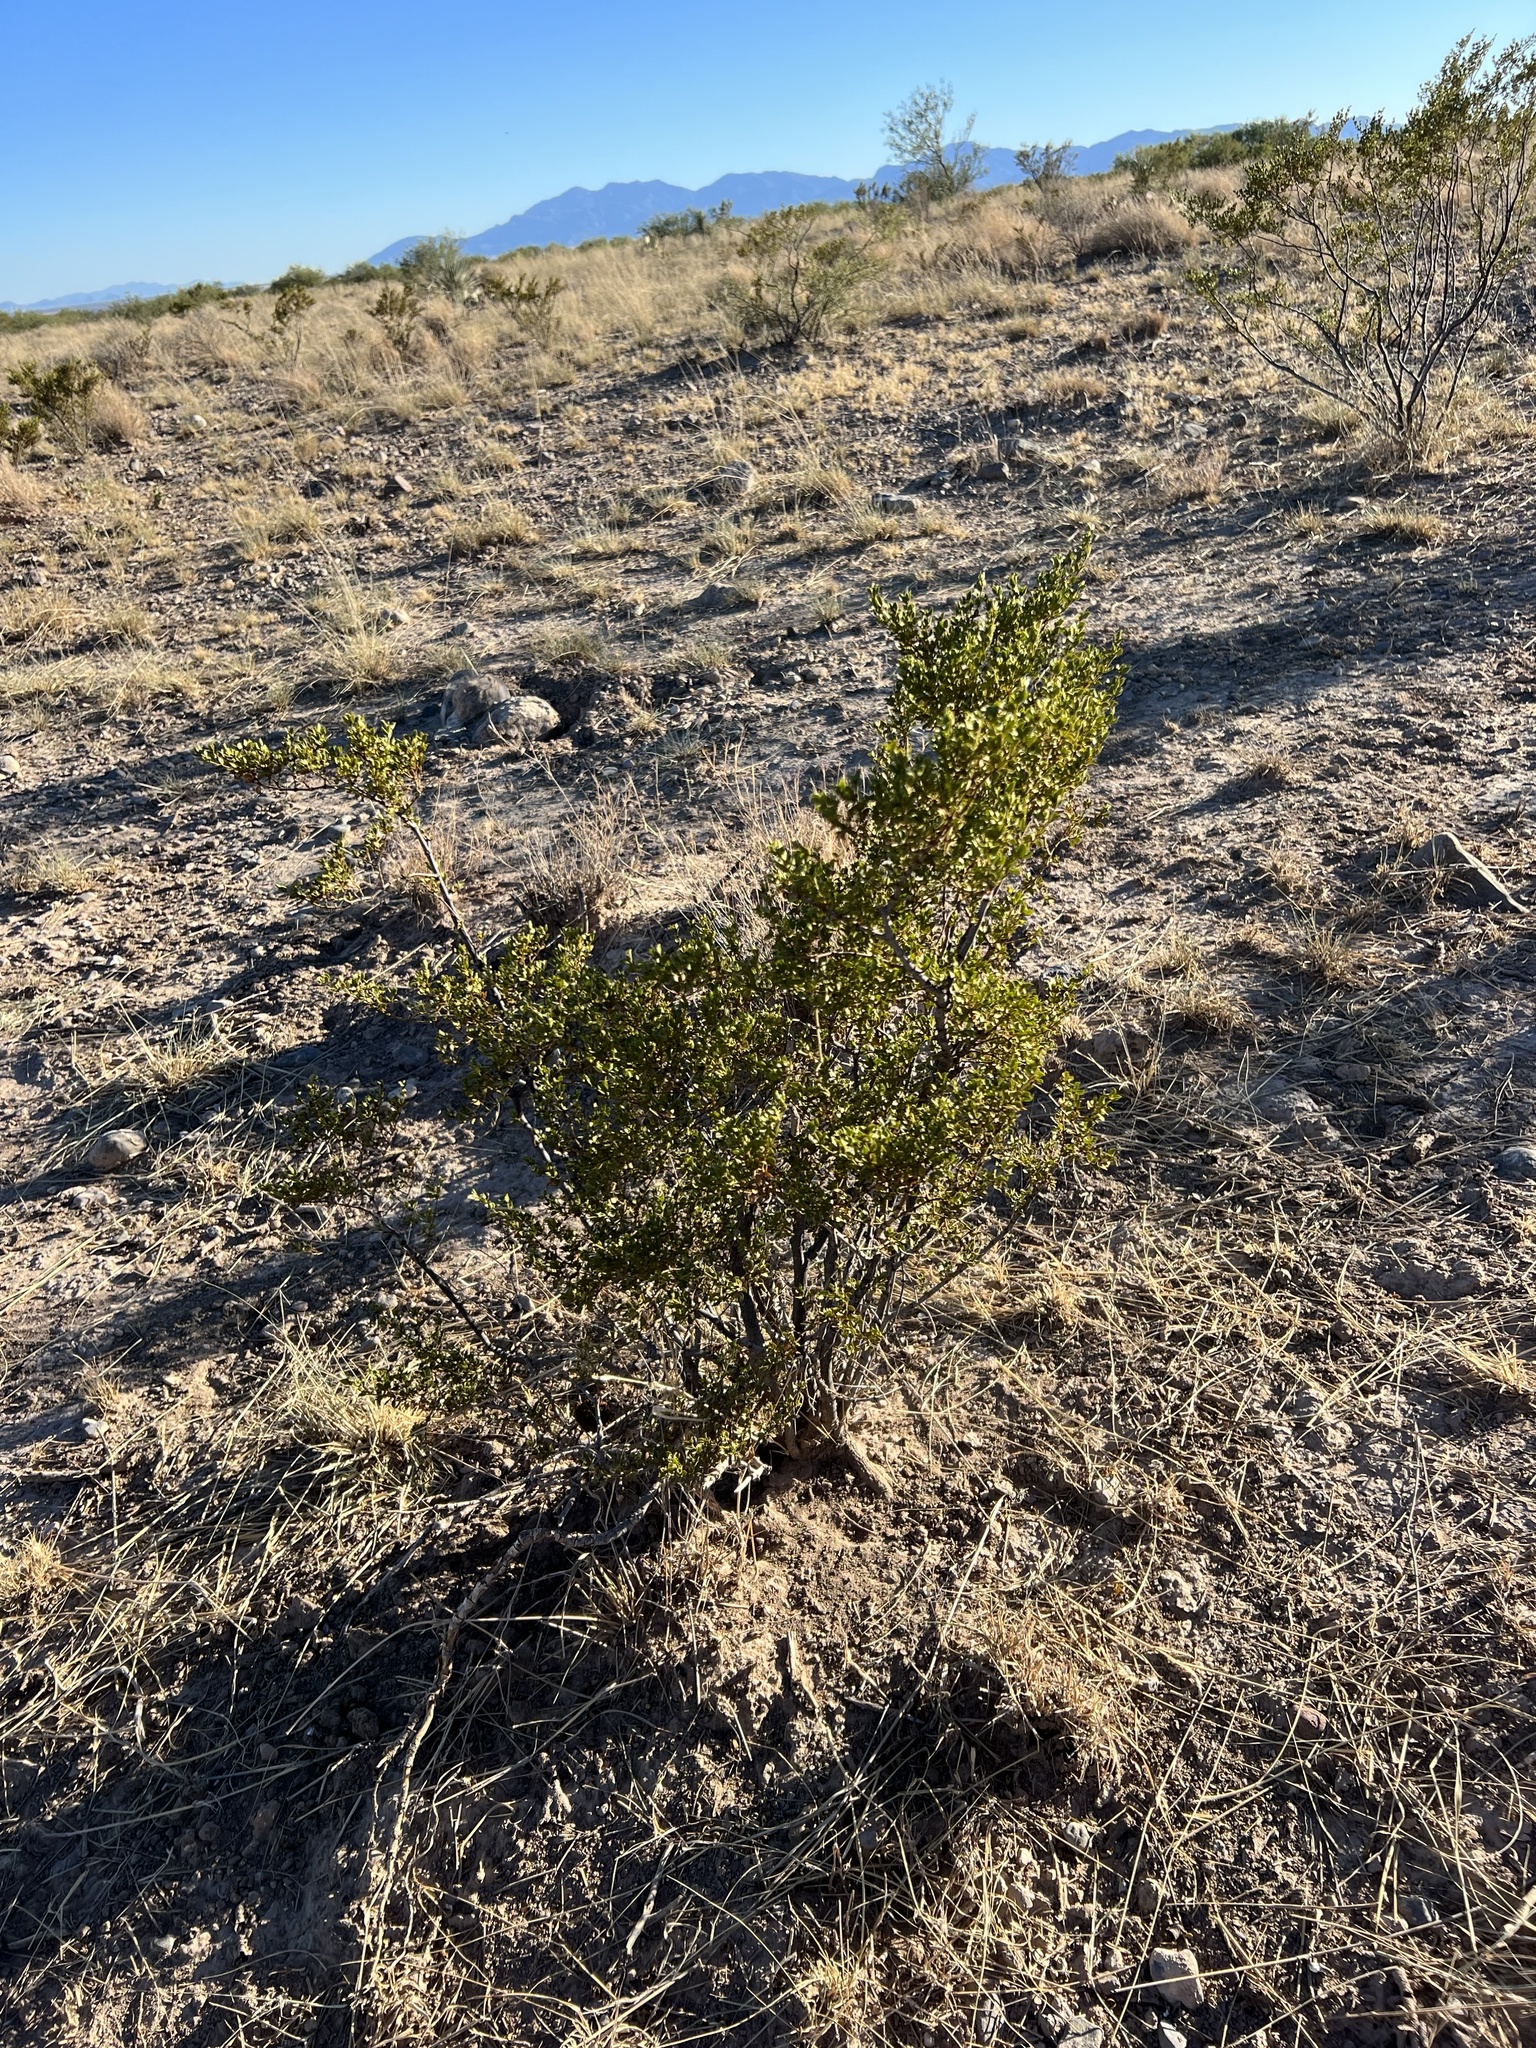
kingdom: Plantae
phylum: Tracheophyta
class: Magnoliopsida
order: Zygophyllales
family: Zygophyllaceae
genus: Larrea
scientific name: Larrea tridentata
